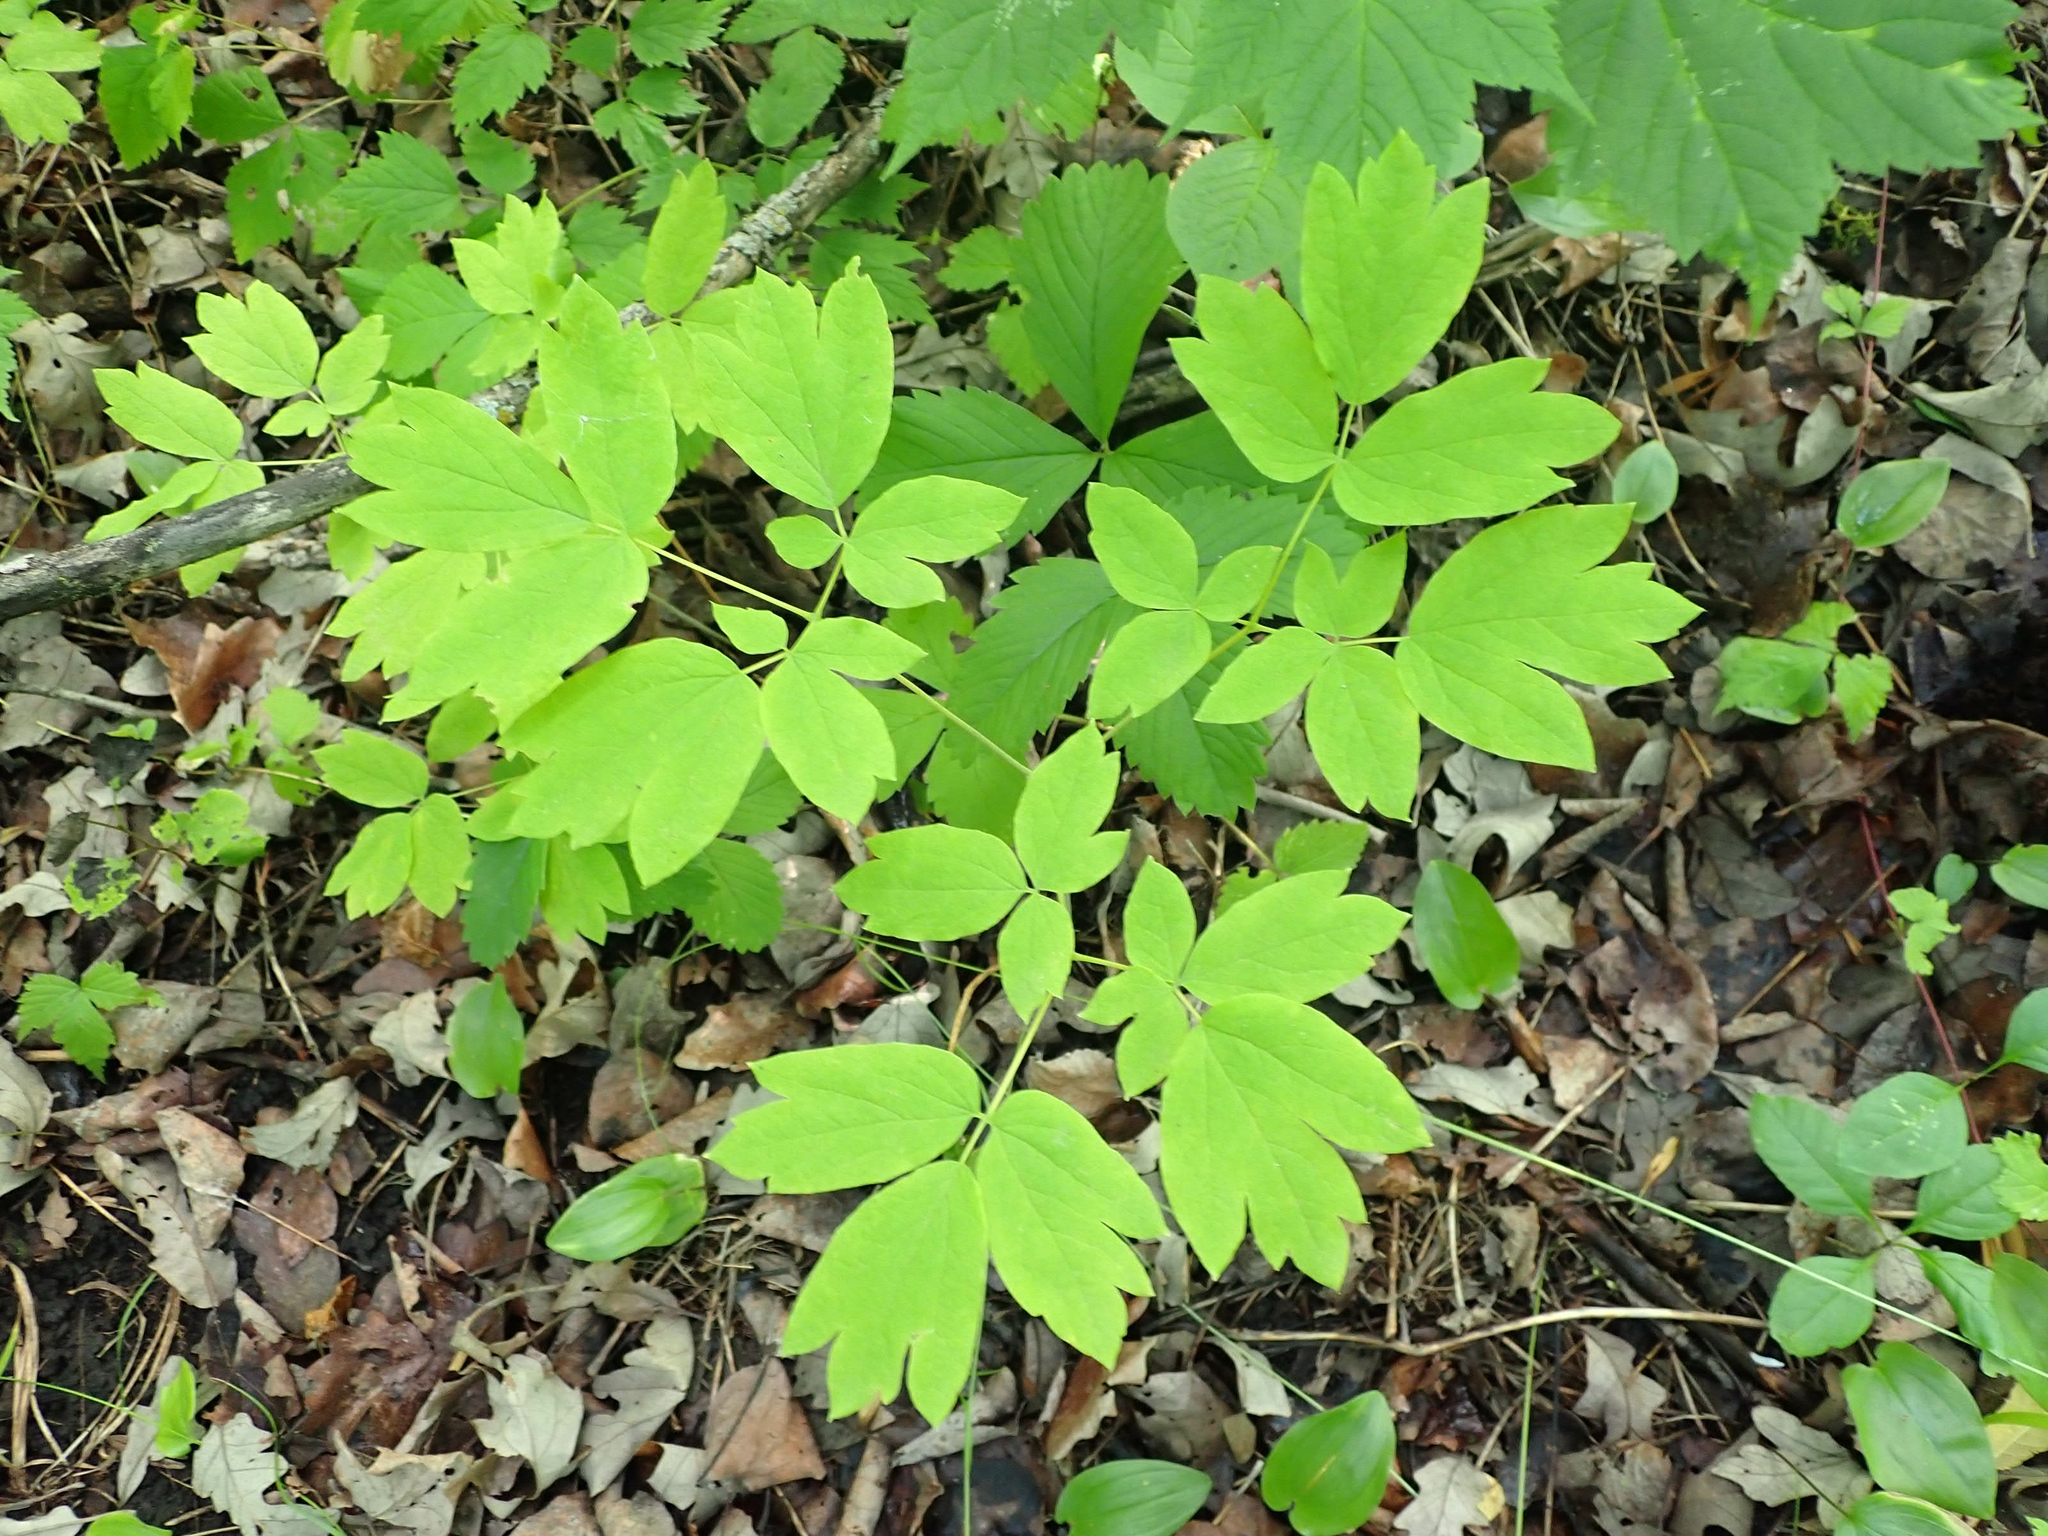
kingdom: Plantae
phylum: Tracheophyta
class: Magnoliopsida
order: Ranunculales
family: Berberidaceae
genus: Caulophyllum
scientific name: Caulophyllum thalictroides
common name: Blue cohosh
